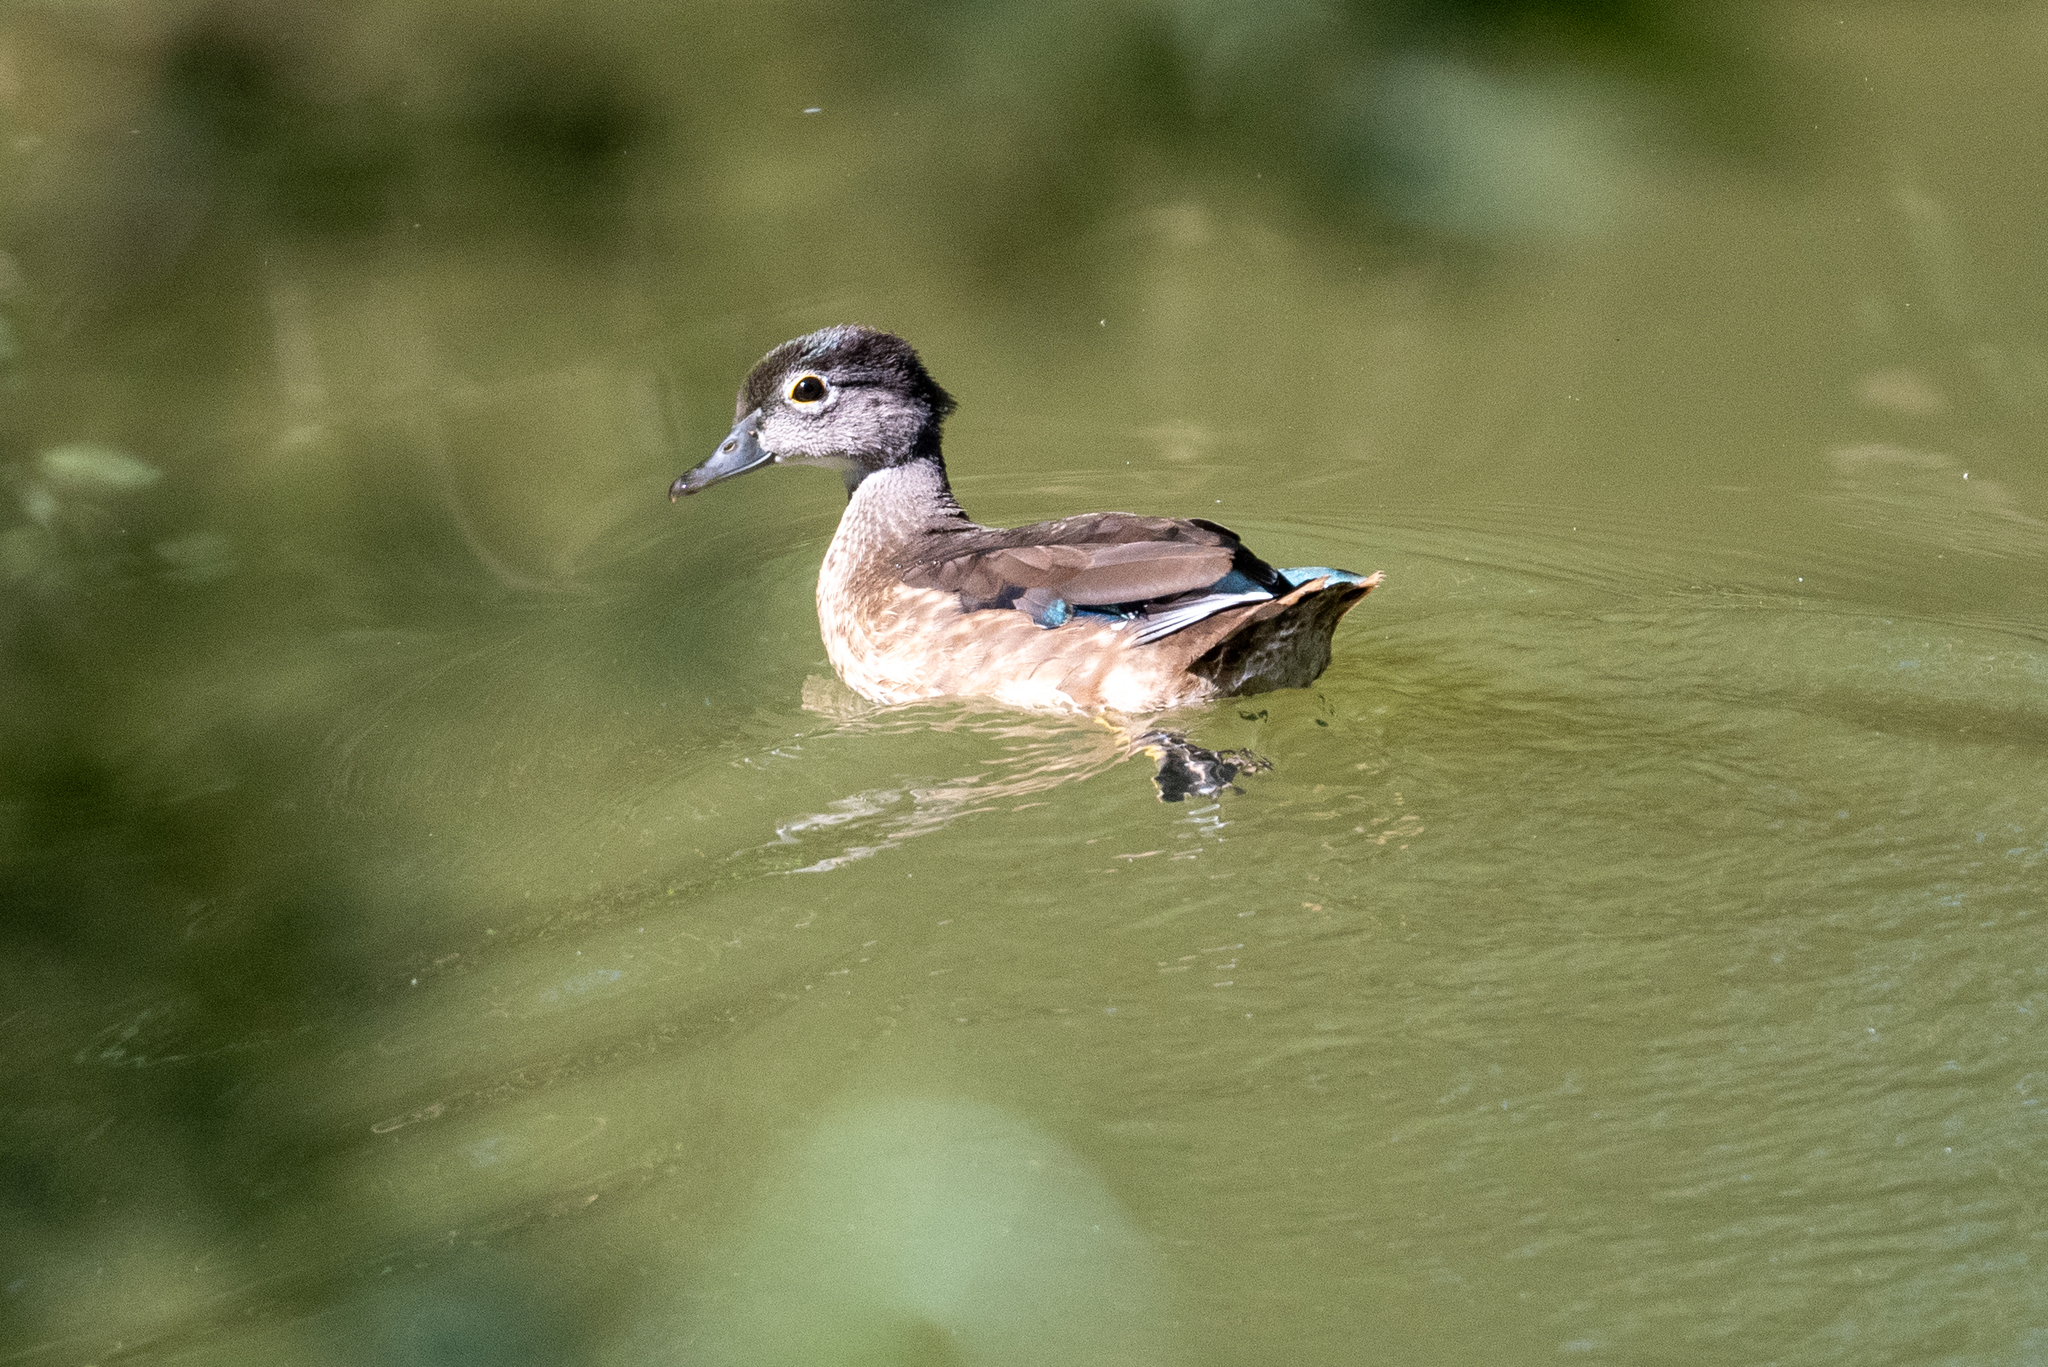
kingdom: Animalia
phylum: Chordata
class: Aves
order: Anseriformes
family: Anatidae
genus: Aix
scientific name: Aix sponsa
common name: Wood duck
